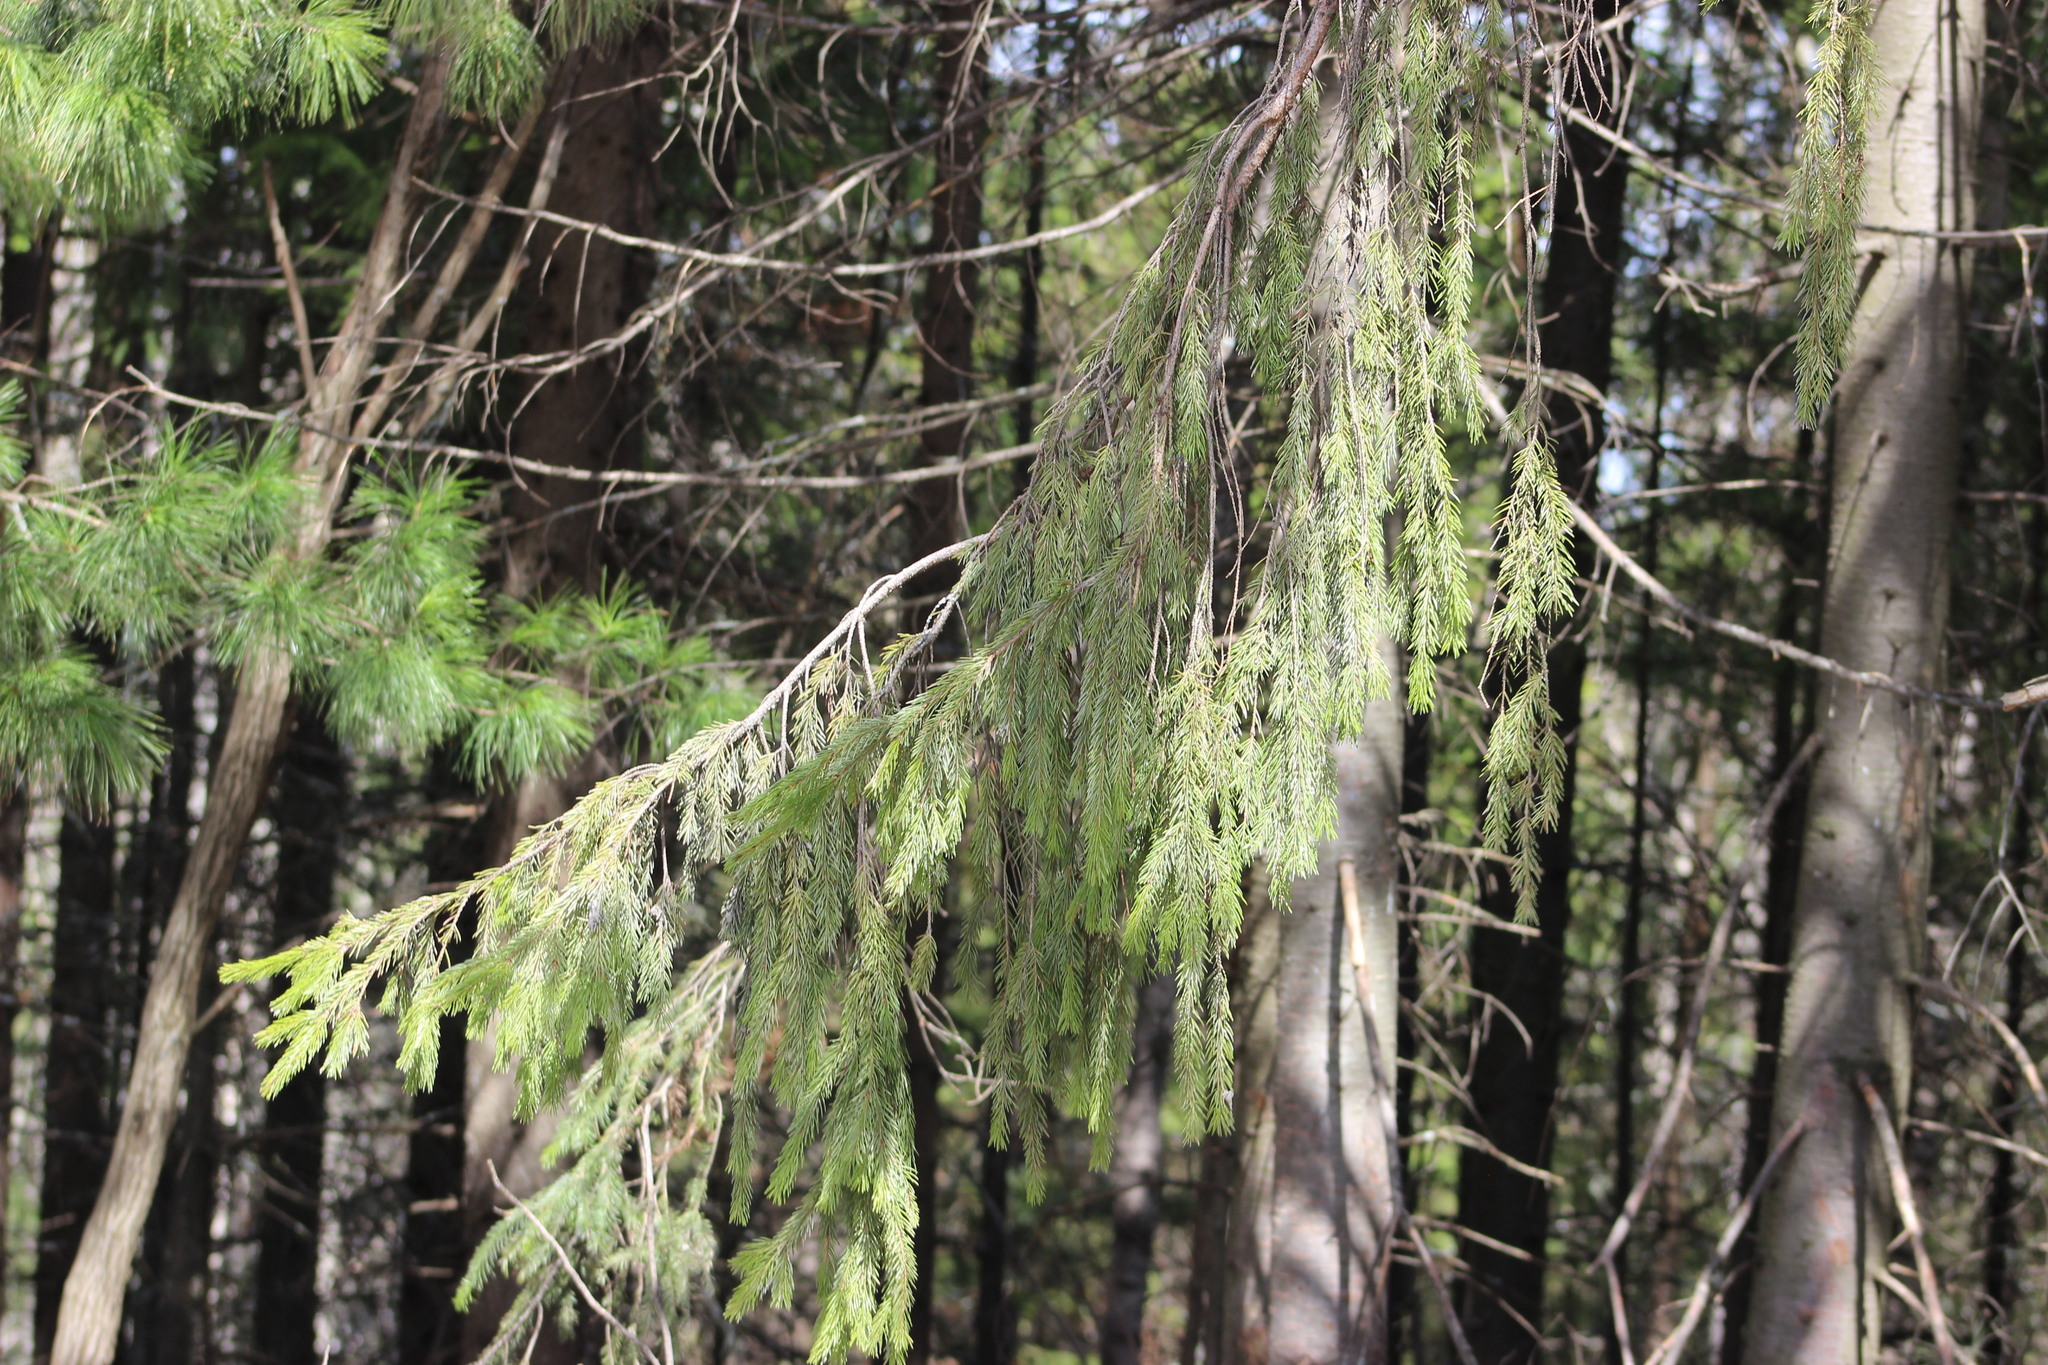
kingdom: Plantae
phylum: Tracheophyta
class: Pinopsida
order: Pinales
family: Pinaceae
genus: Picea
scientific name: Picea obovata
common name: Siberian spruce
